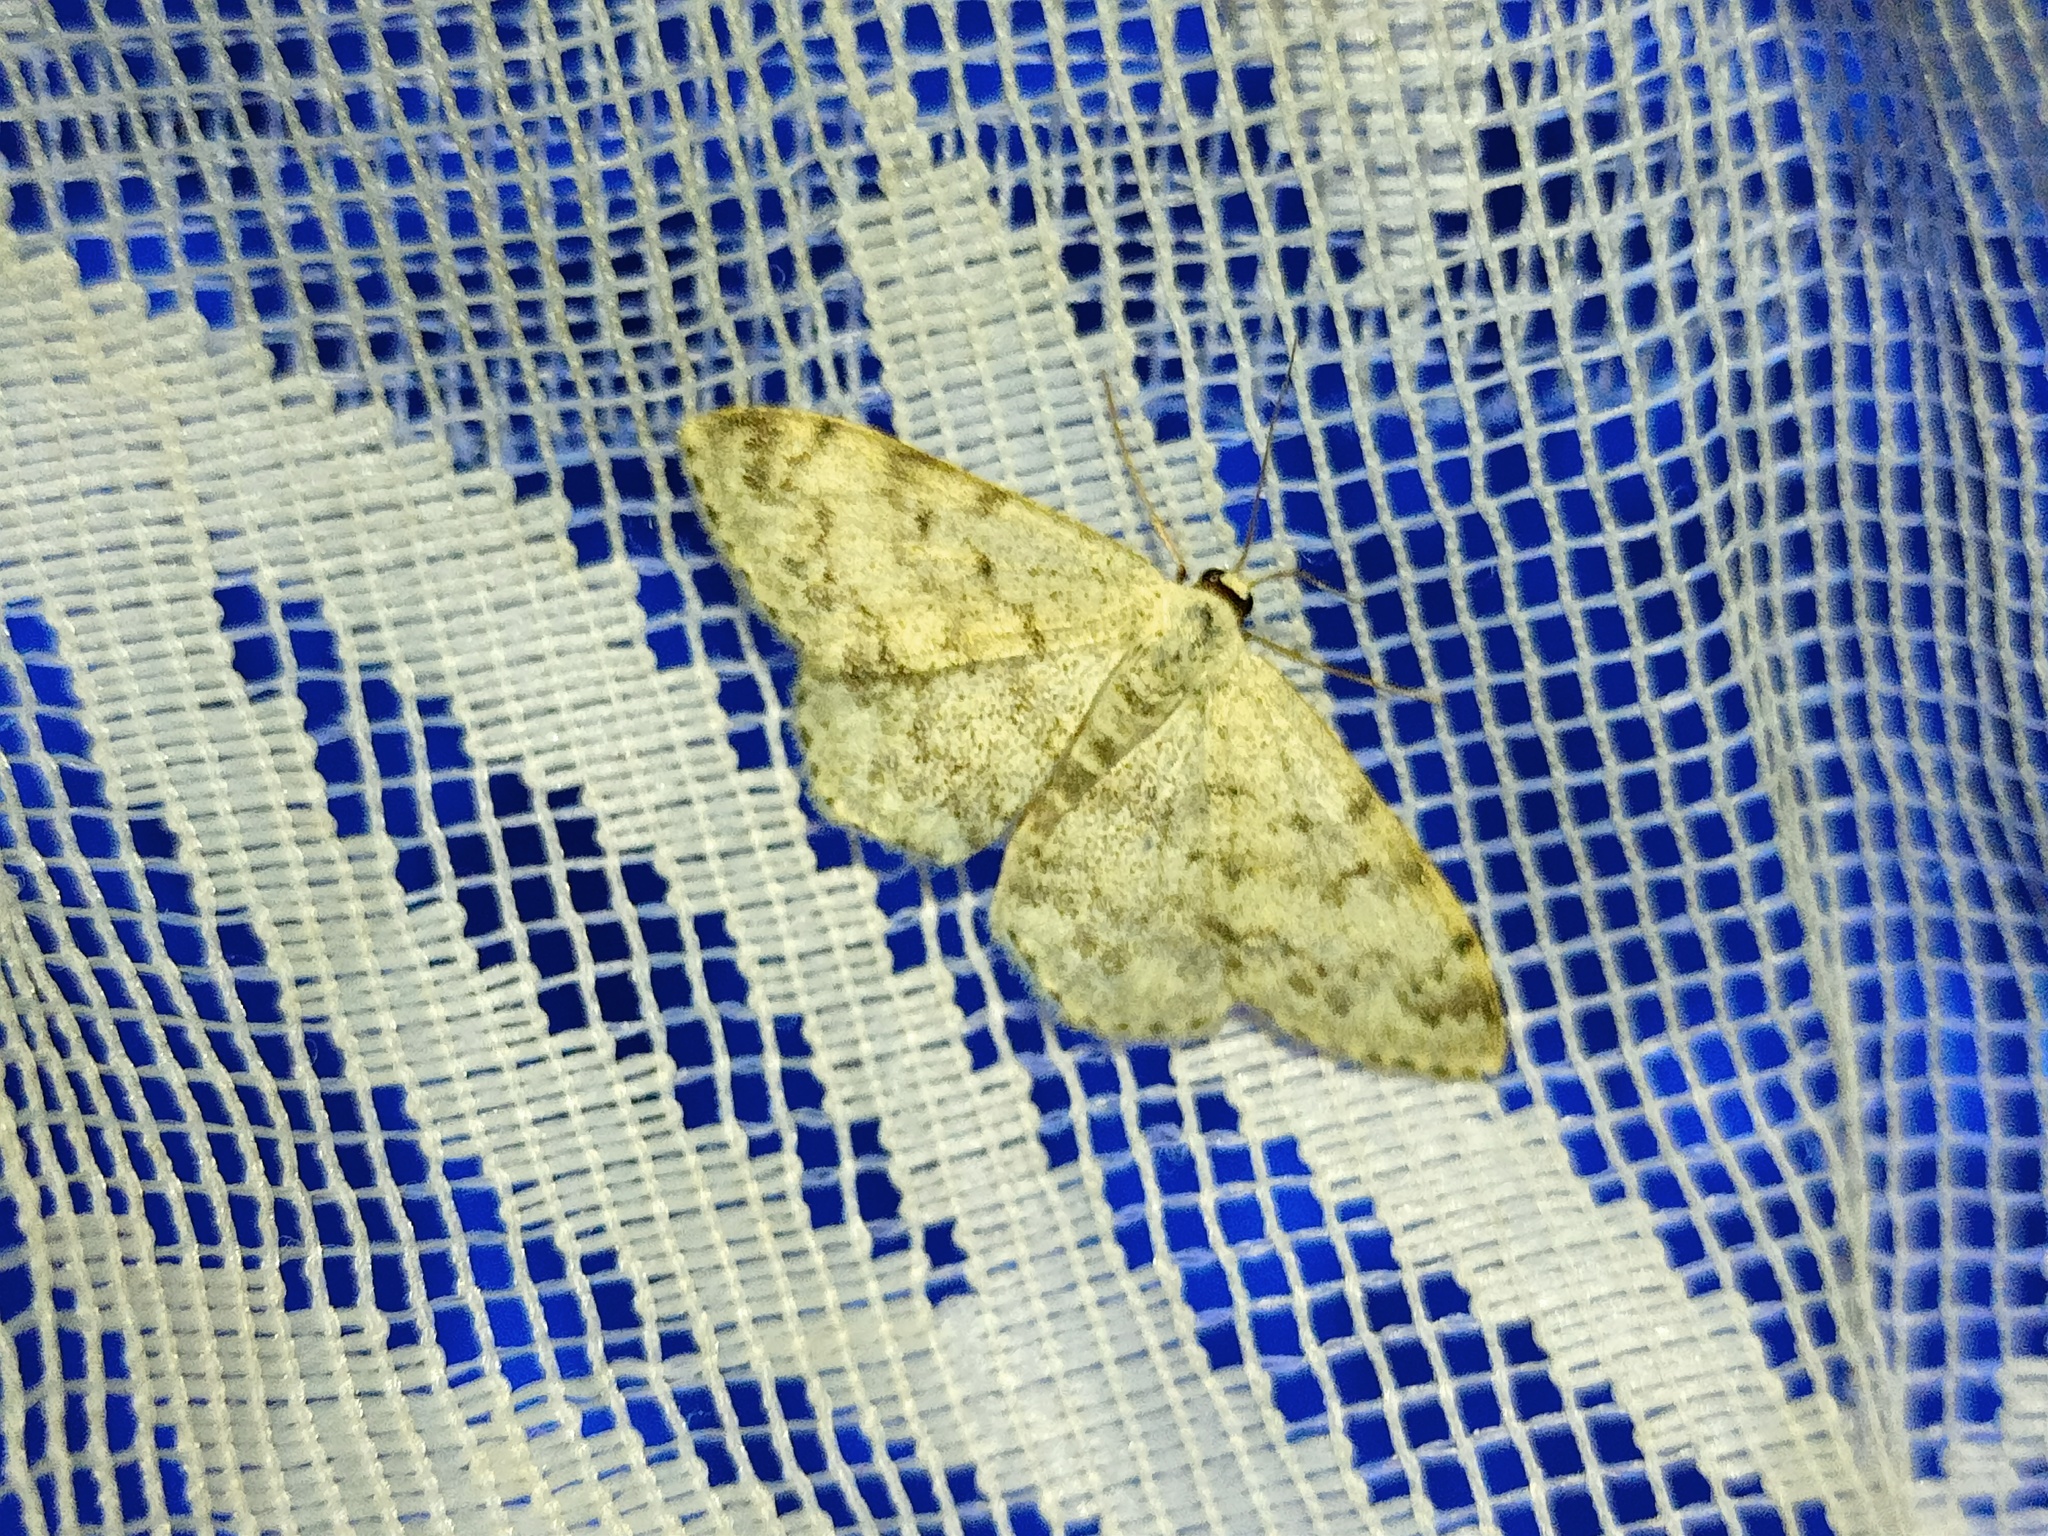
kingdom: Animalia
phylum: Arthropoda
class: Insecta
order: Lepidoptera
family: Geometridae
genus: Scopula
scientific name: Scopula marginepunctata
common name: Mullein wave
